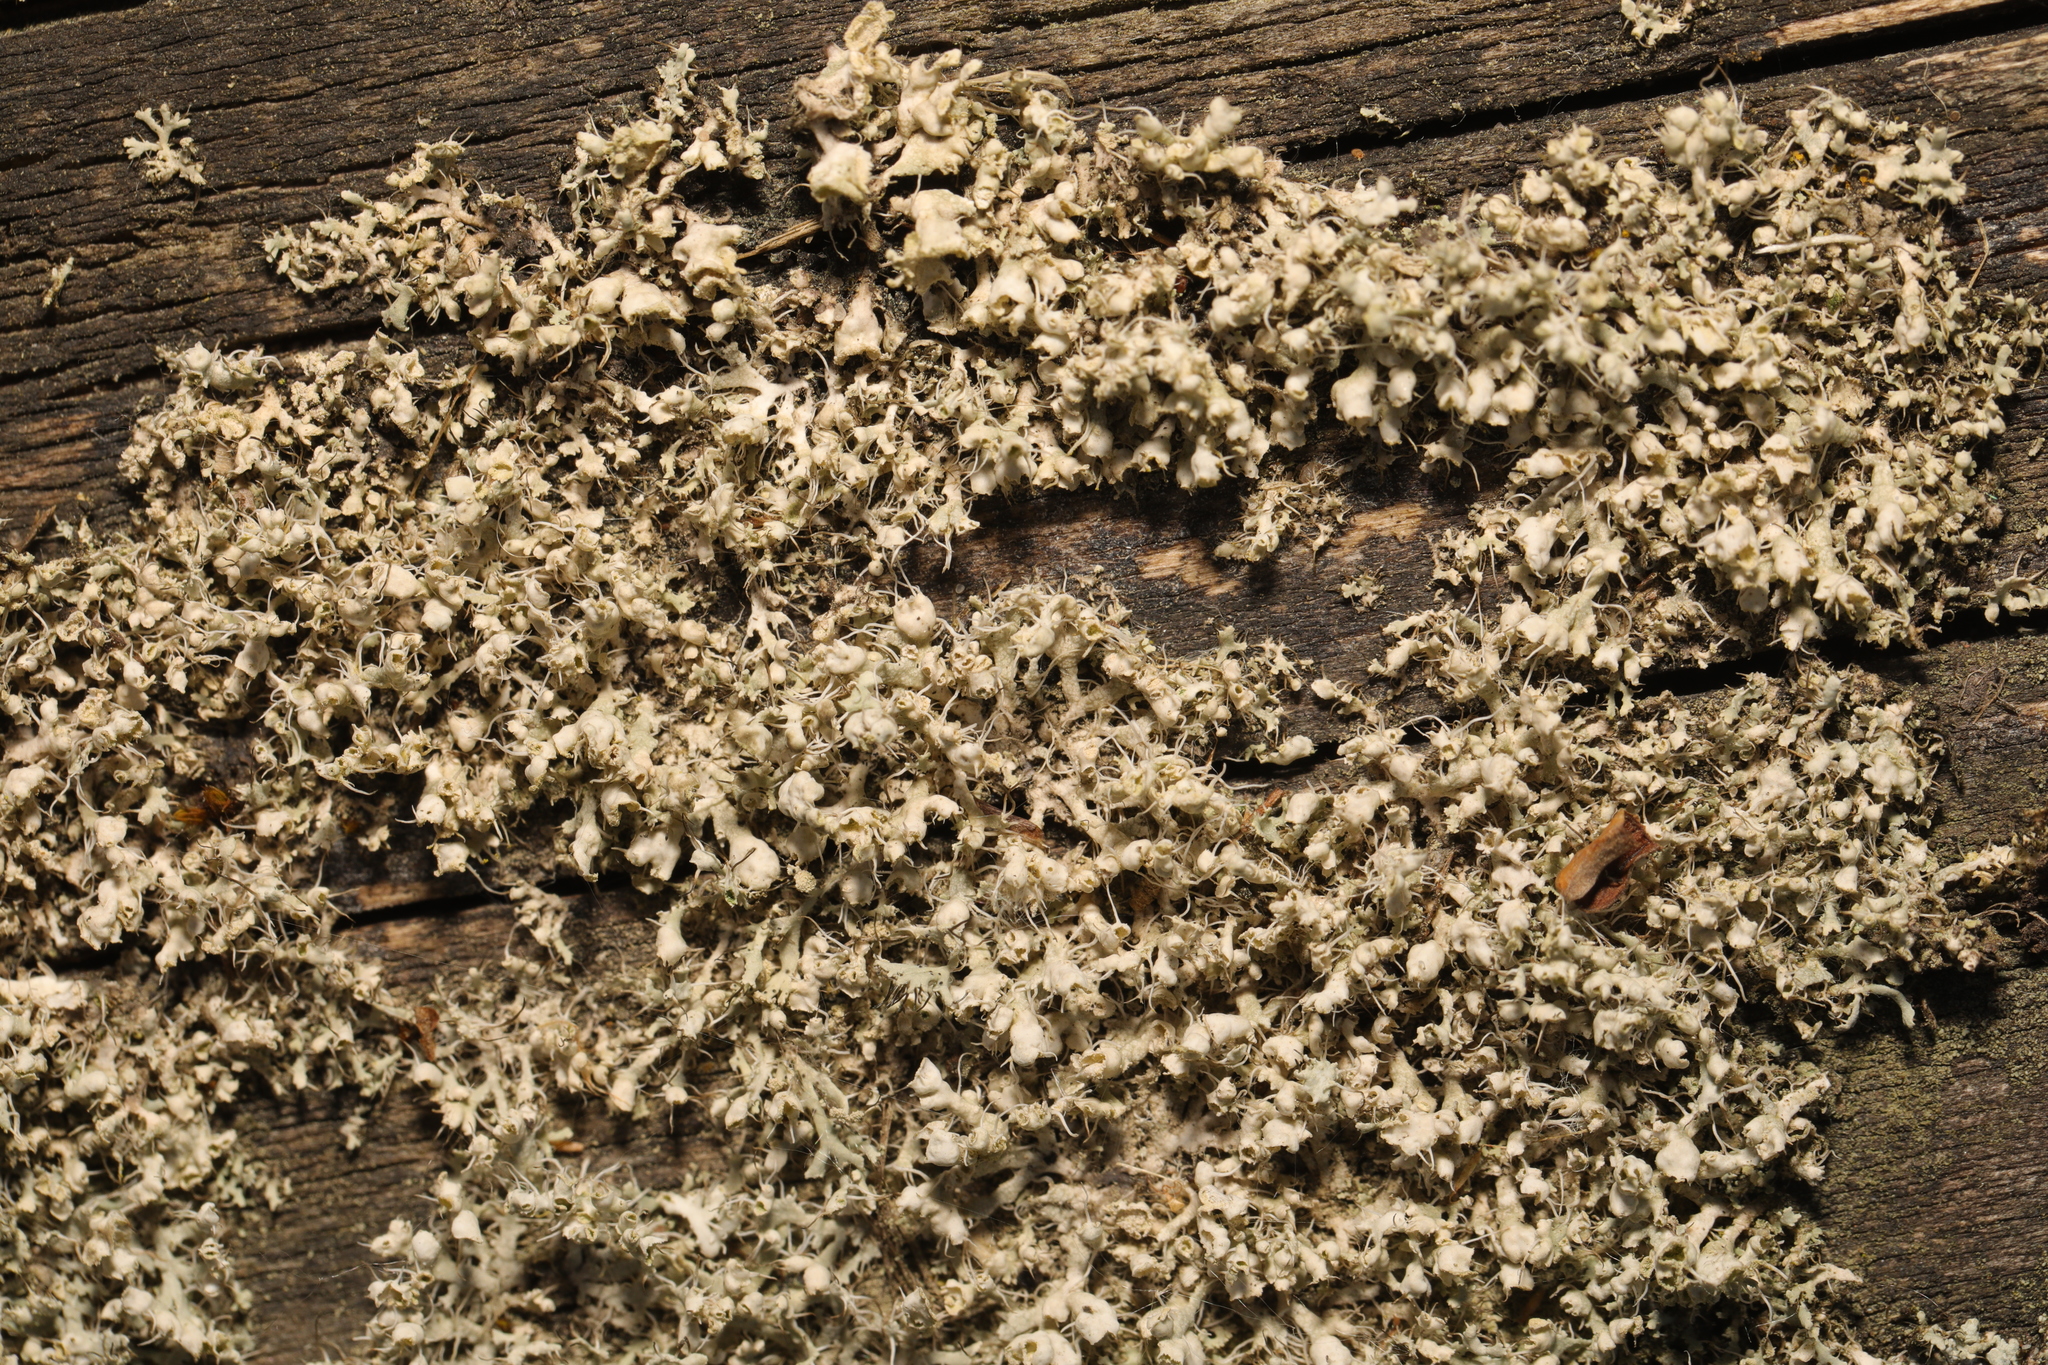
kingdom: Fungi
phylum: Ascomycota
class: Lecanoromycetes
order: Caliciales
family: Physciaceae
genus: Physcia
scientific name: Physcia adscendens
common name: Hooded rosette lichen
